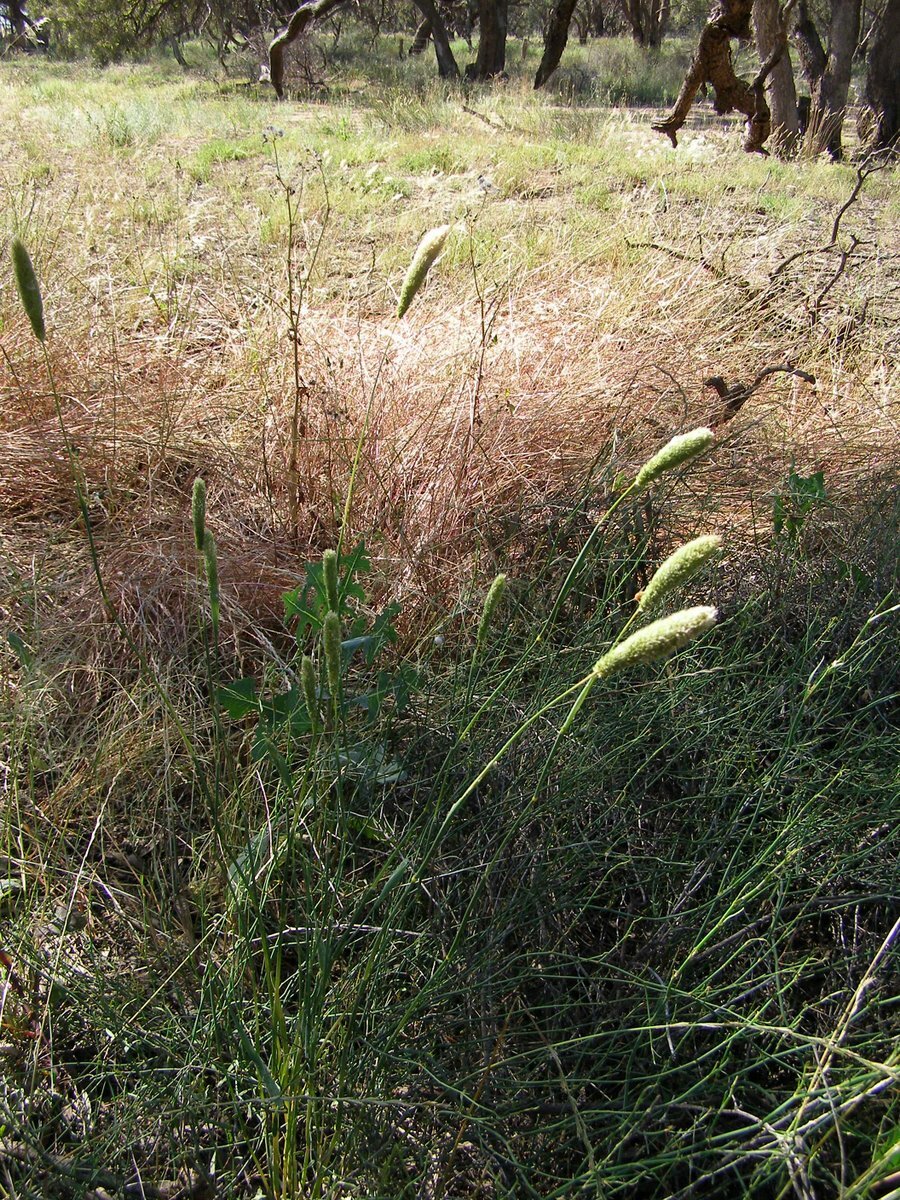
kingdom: Plantae
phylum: Tracheophyta
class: Liliopsida
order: Poales
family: Poaceae
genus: Phalaris
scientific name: Phalaris aquatica
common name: Bulbous canary-grass
